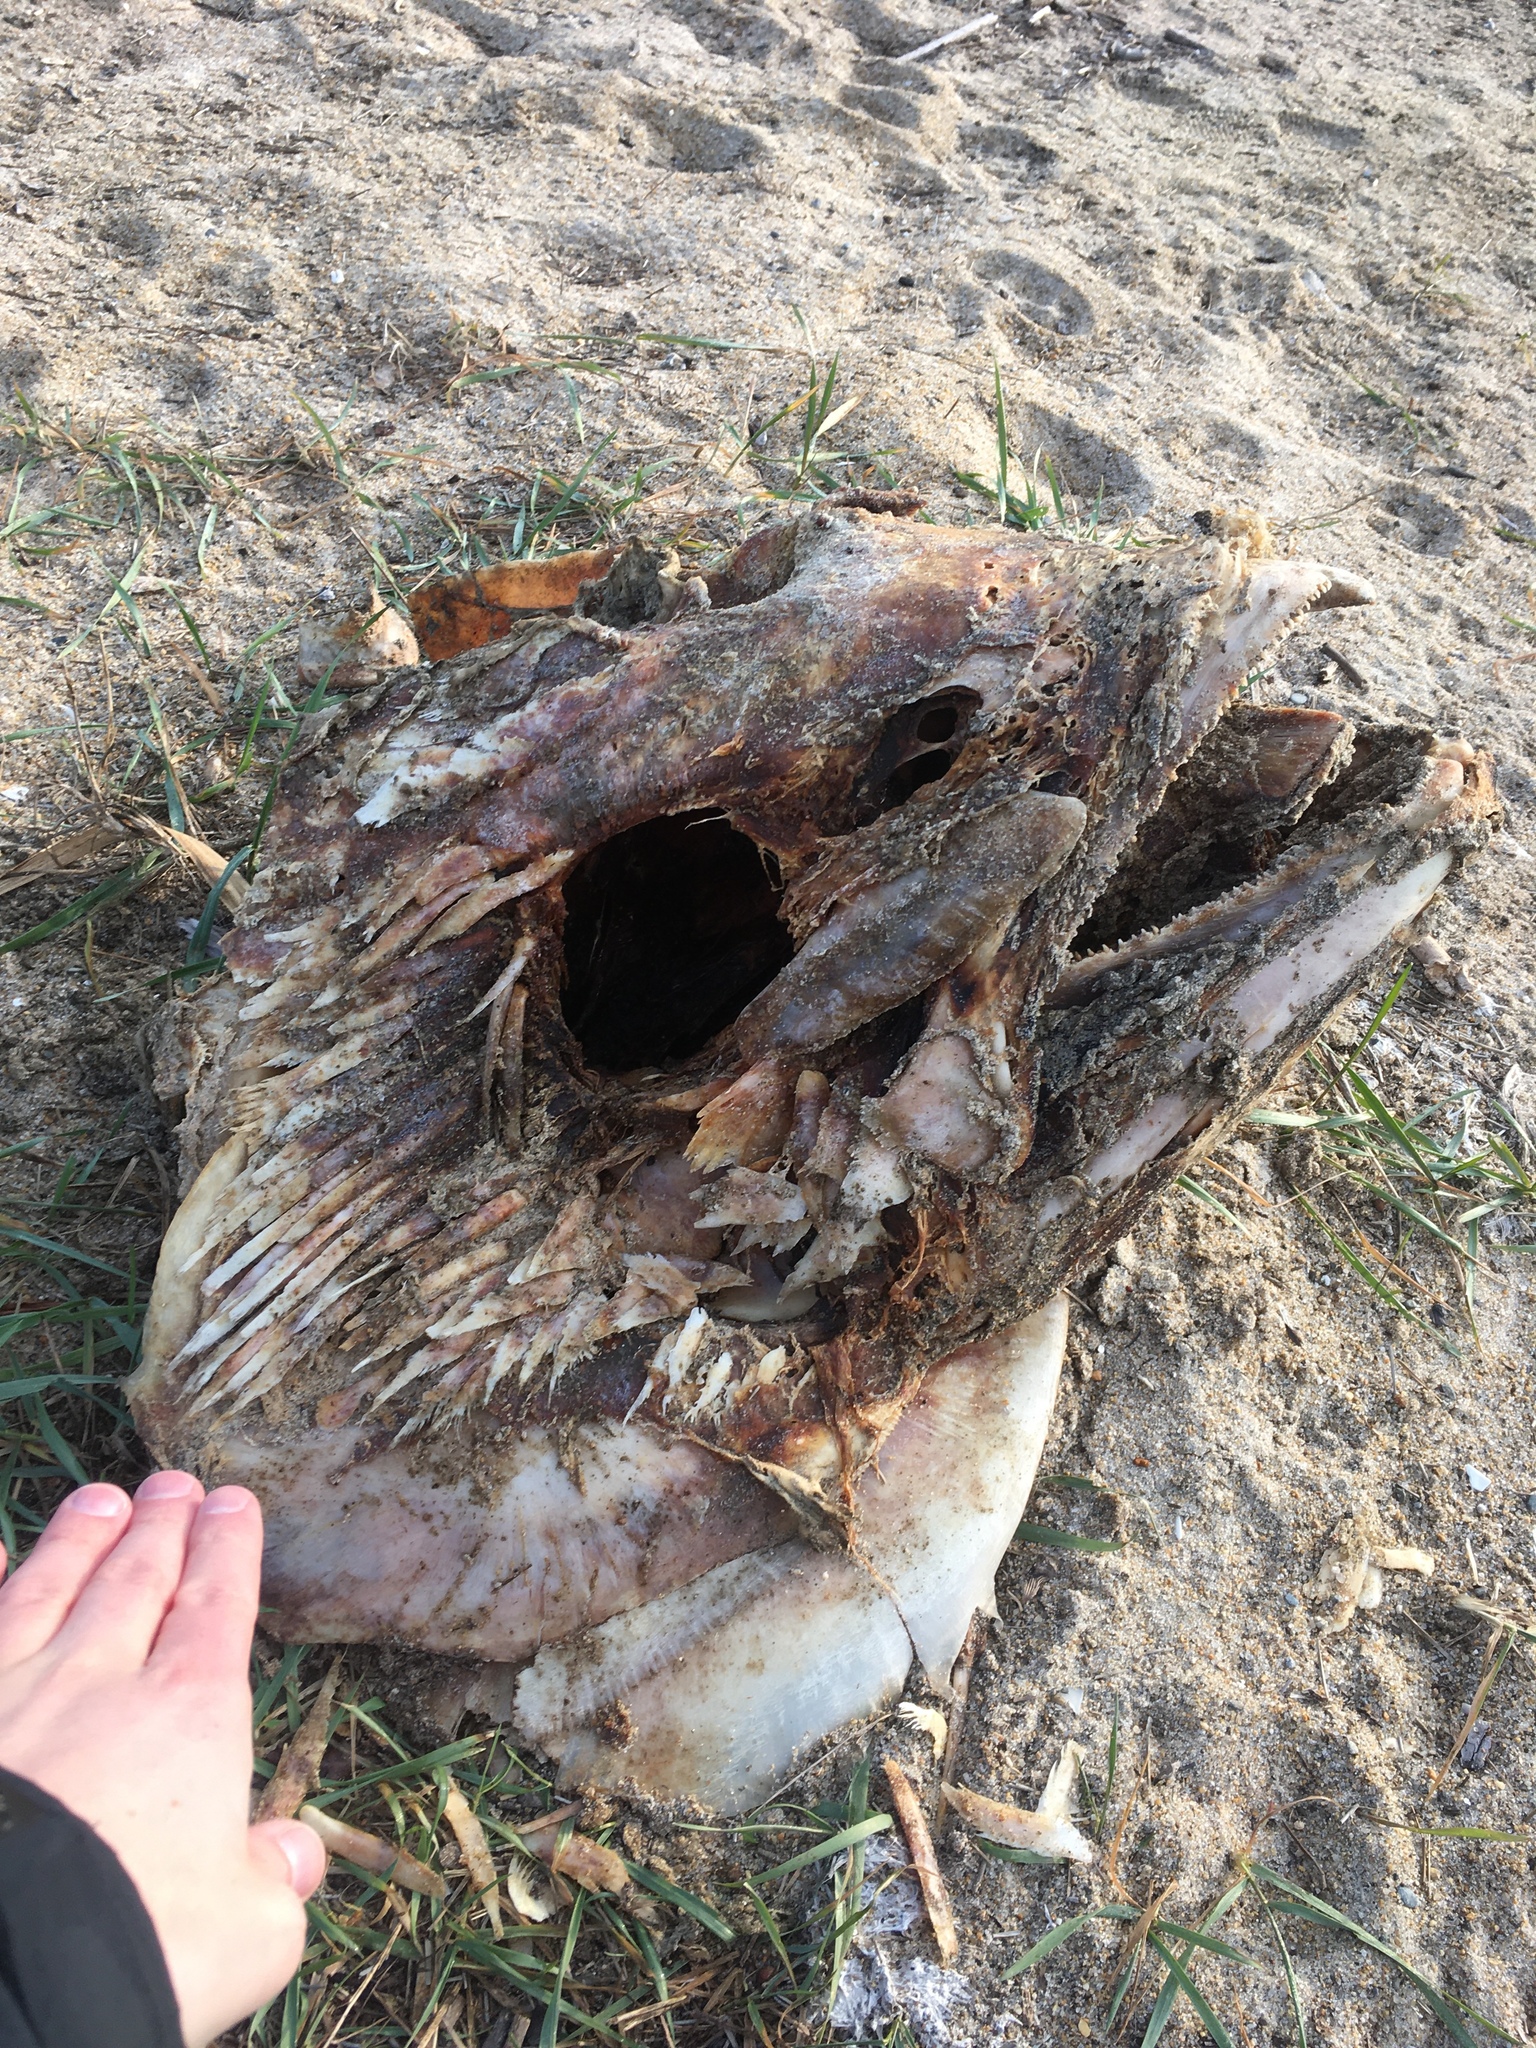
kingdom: Animalia
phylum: Chordata
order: Perciformes
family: Scombridae
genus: Thunnus
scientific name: Thunnus thynnus
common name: Bluefin tuna
